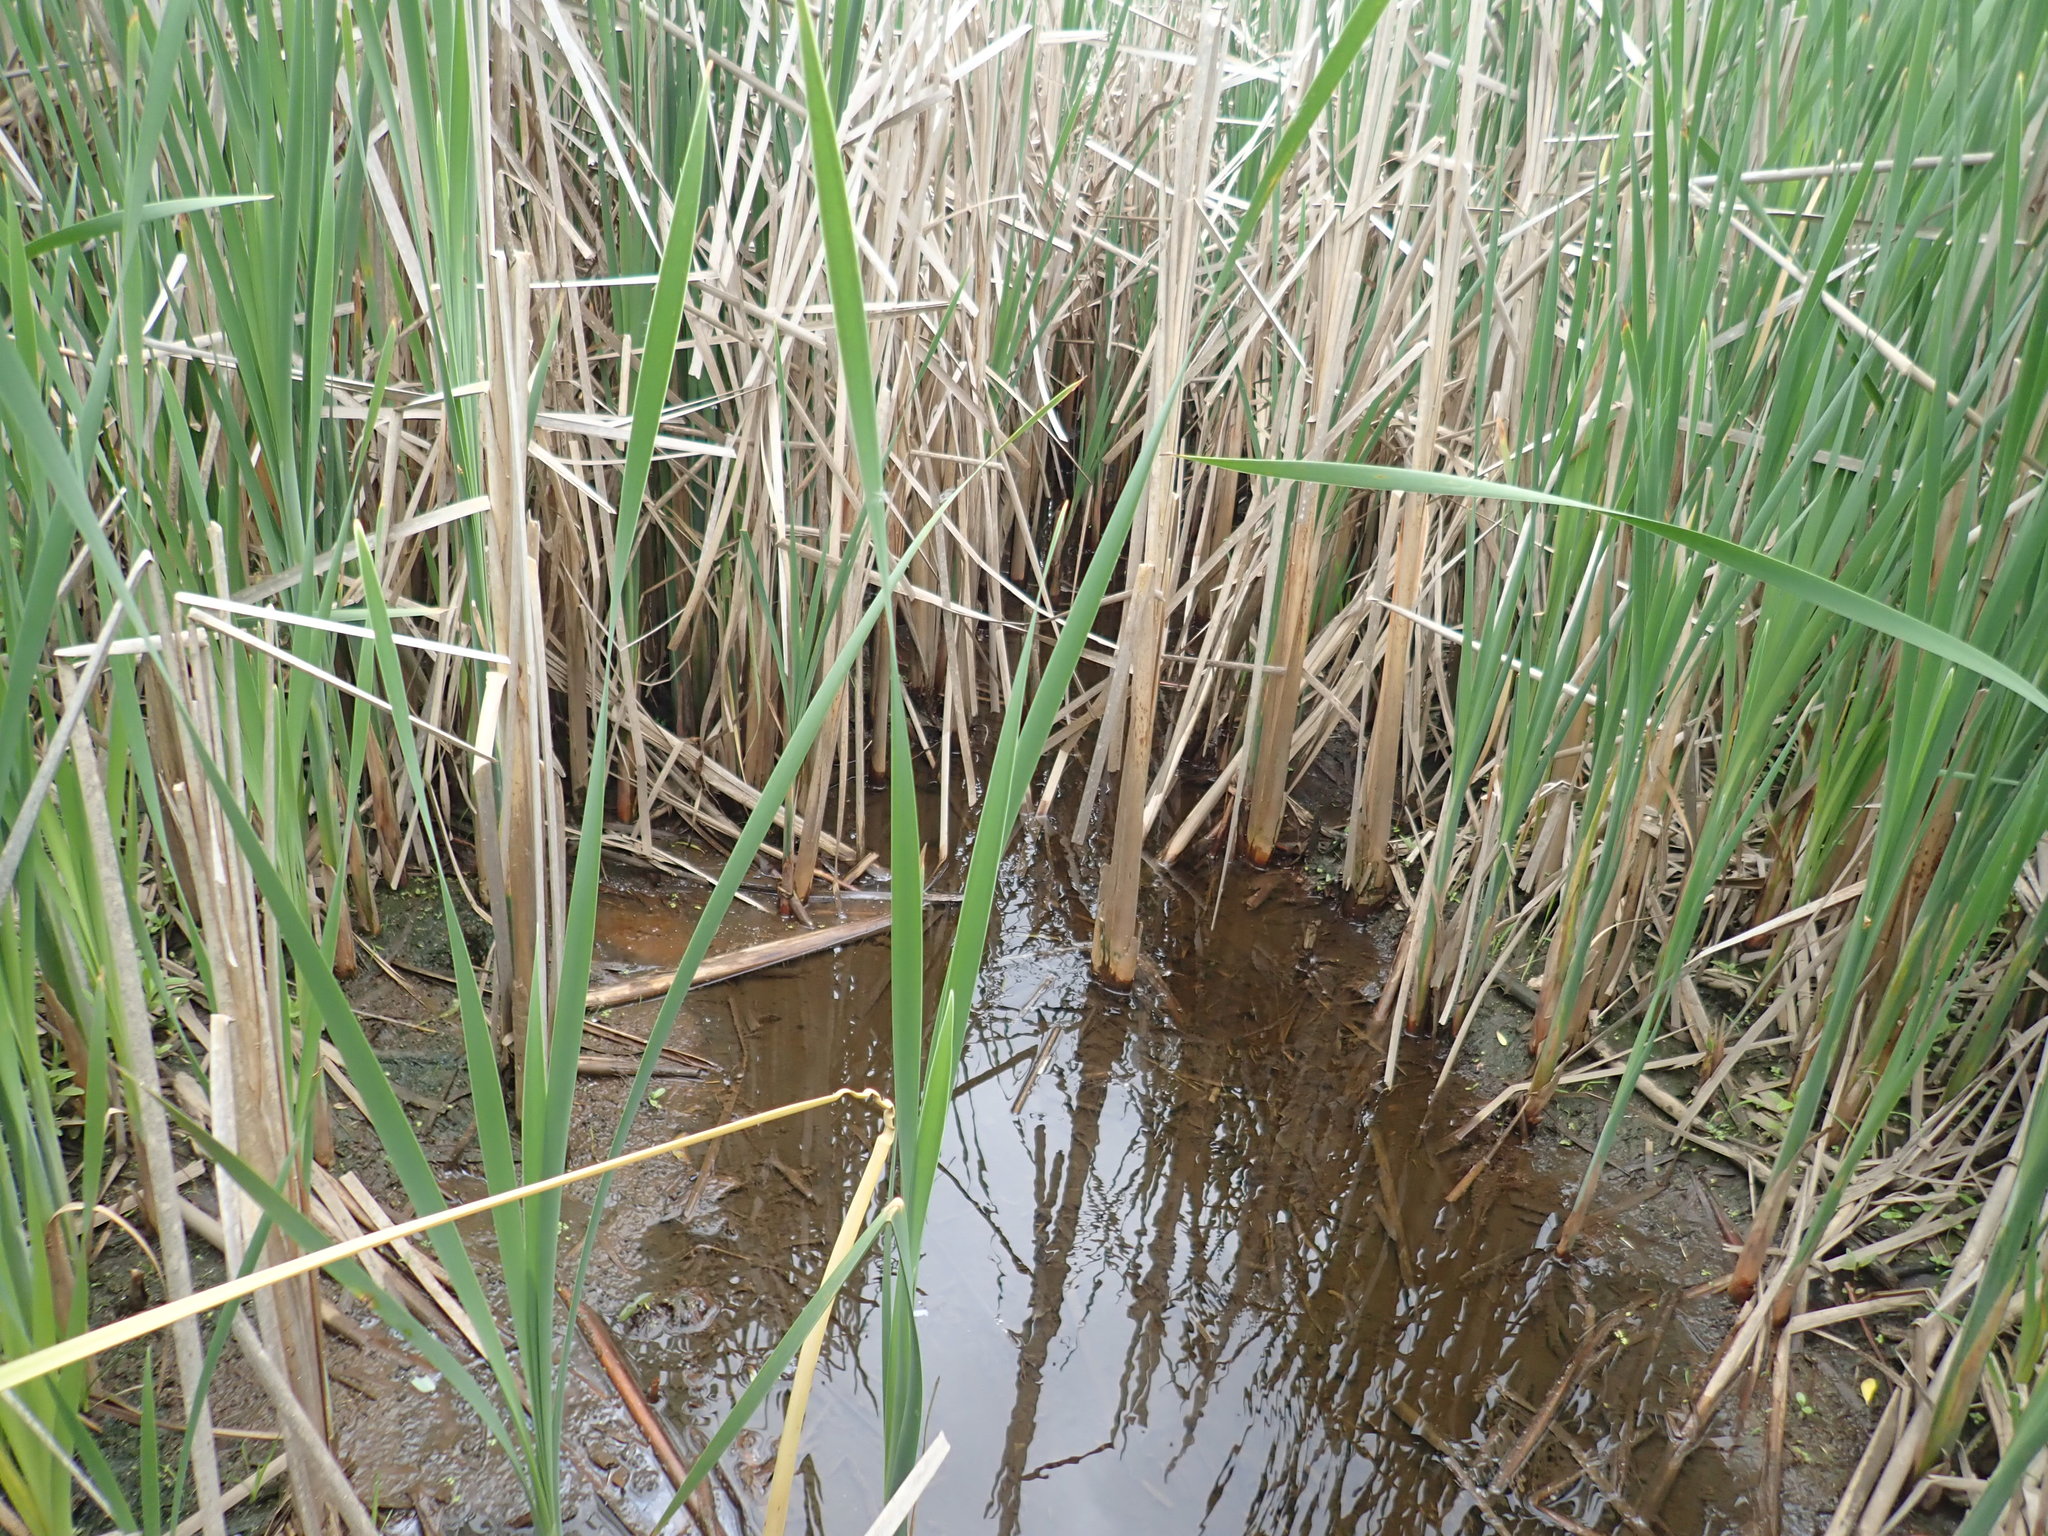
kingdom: Plantae
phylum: Tracheophyta
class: Liliopsida
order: Poales
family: Typhaceae
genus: Typha
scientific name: Typha latifolia
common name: Broadleaf cattail
